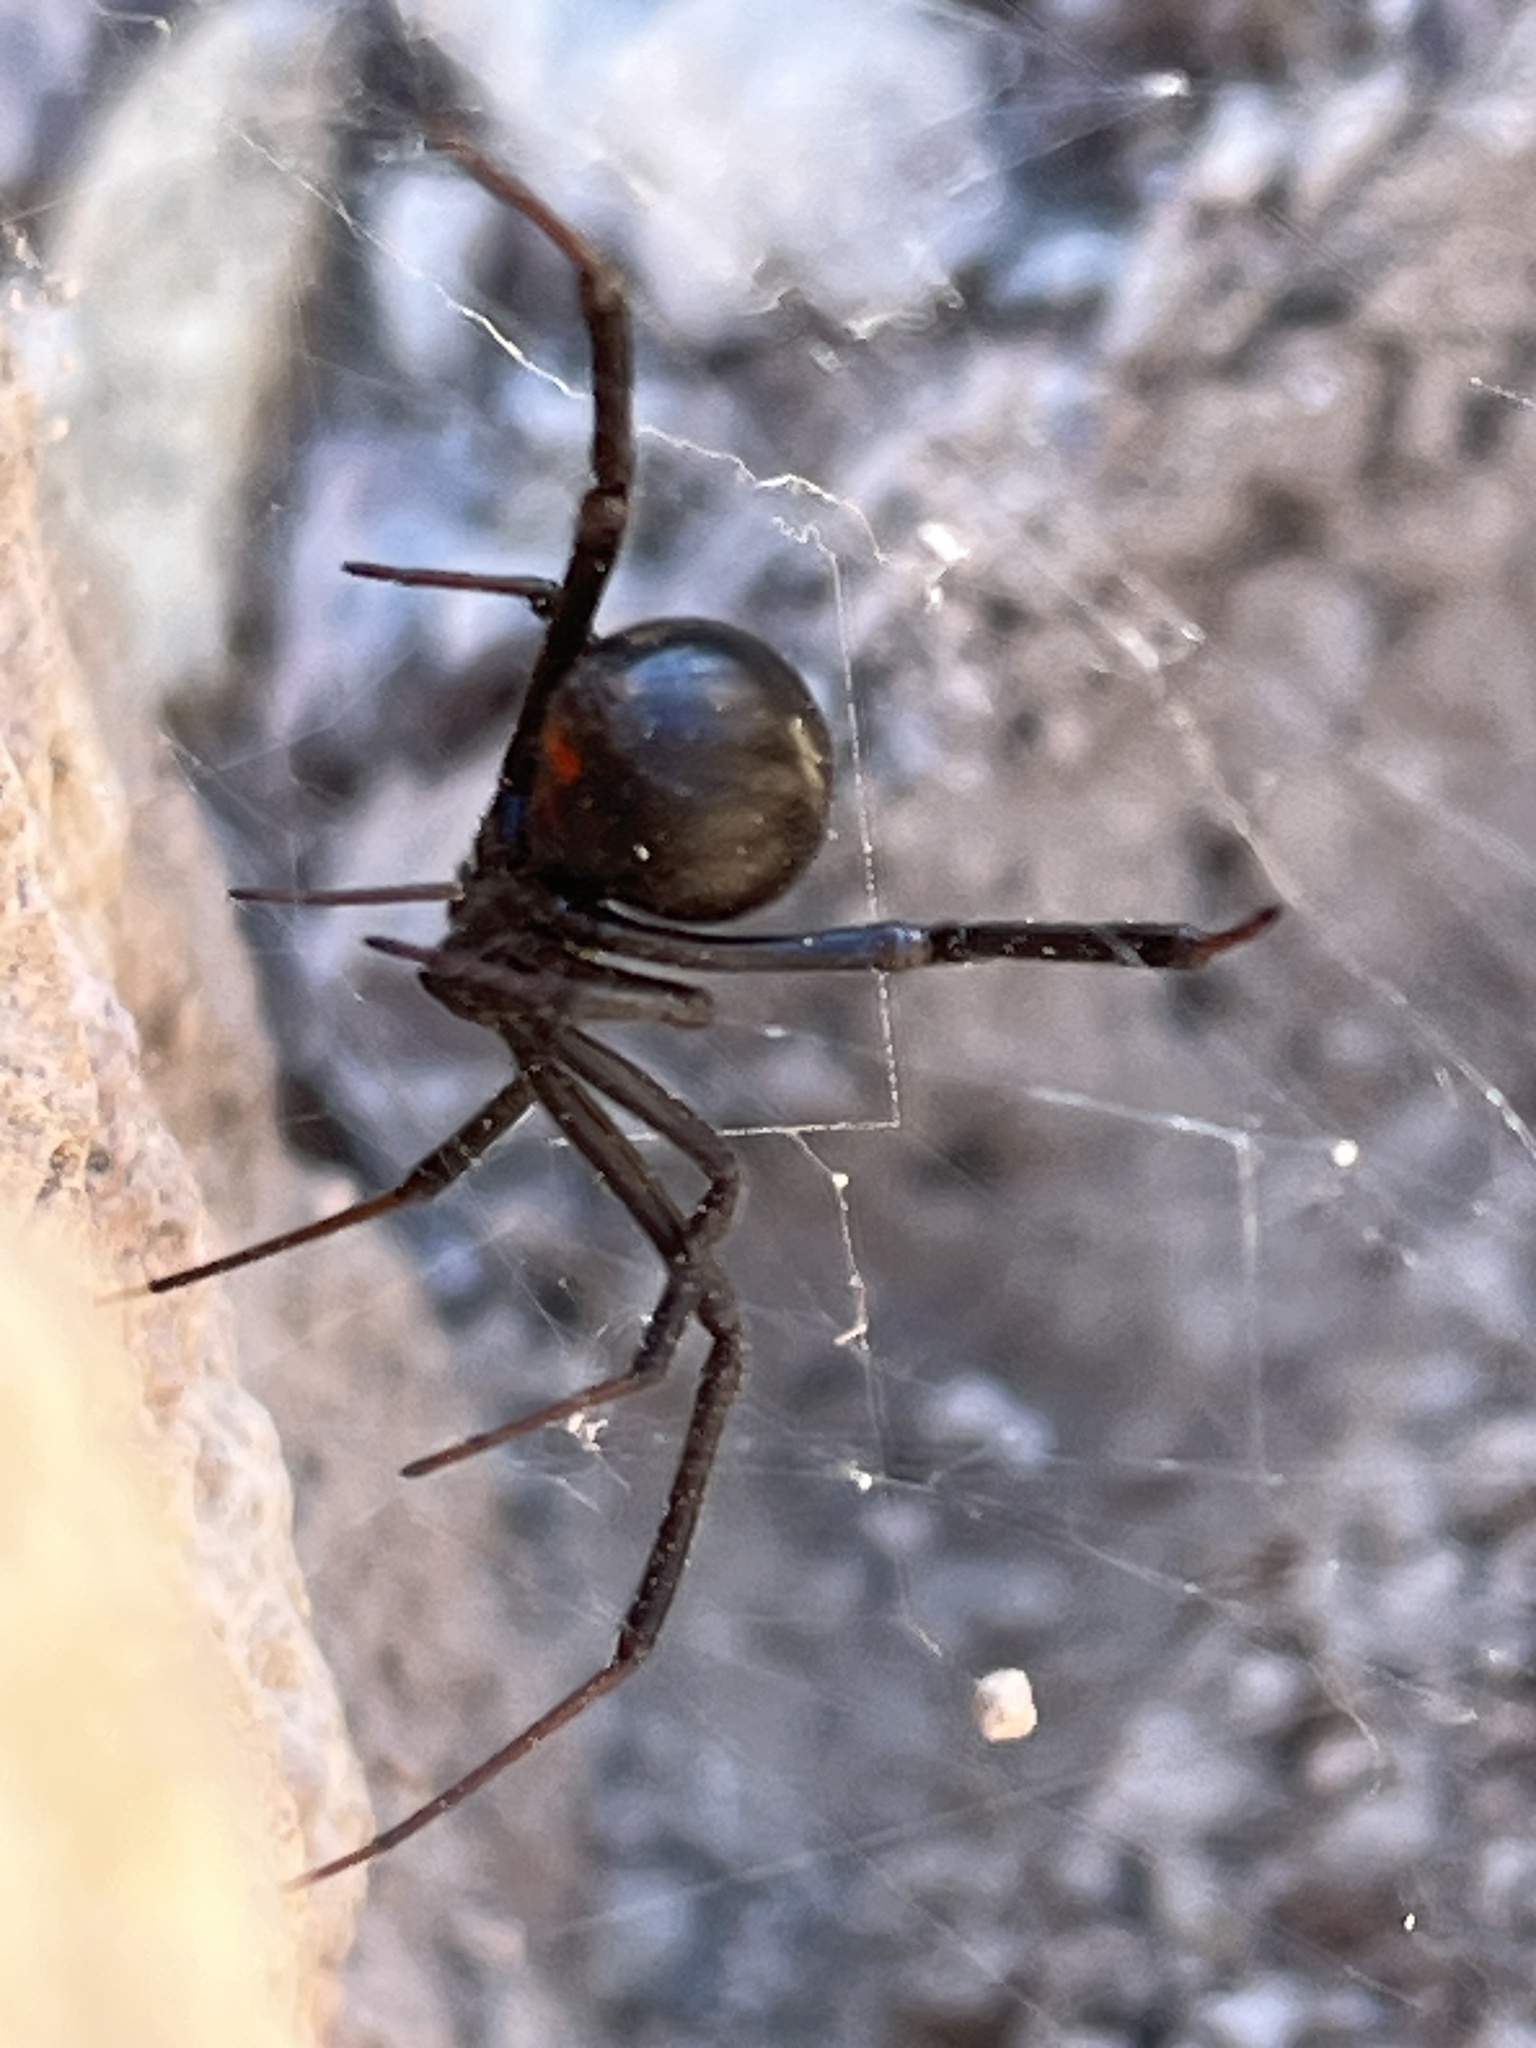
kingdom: Animalia
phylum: Arthropoda
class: Arachnida
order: Araneae
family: Theridiidae
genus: Latrodectus
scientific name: Latrodectus hesperus
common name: Western black widow
